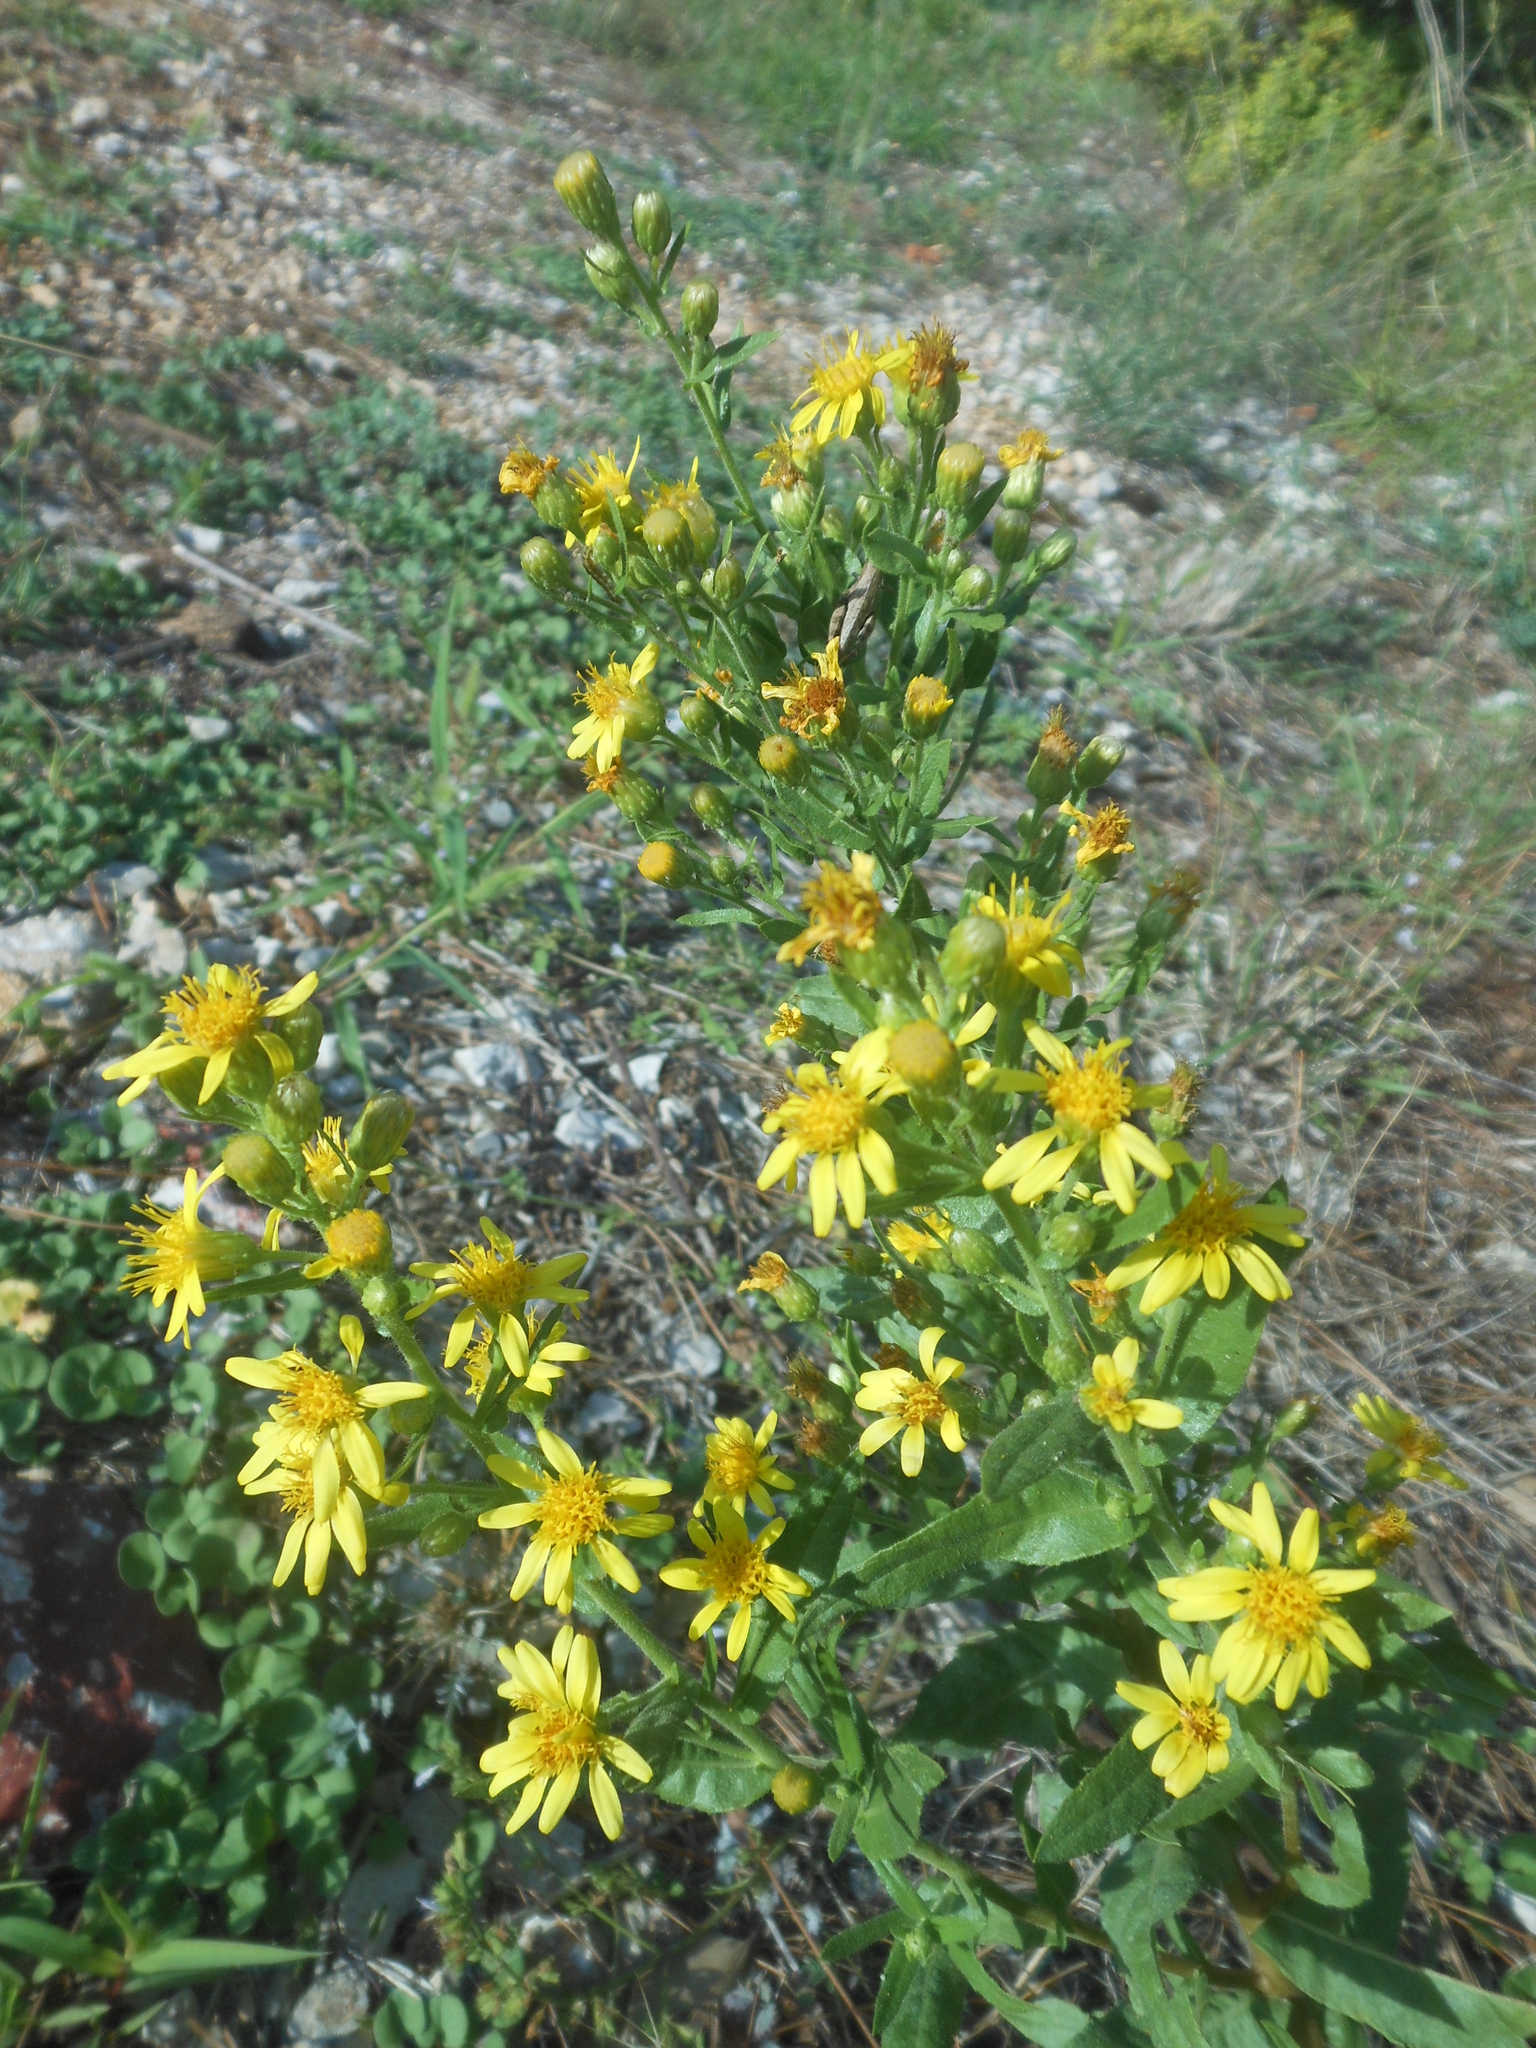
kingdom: Plantae
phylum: Tracheophyta
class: Magnoliopsida
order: Asterales
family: Asteraceae
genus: Dittrichia
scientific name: Dittrichia viscosa
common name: Woody fleabane
